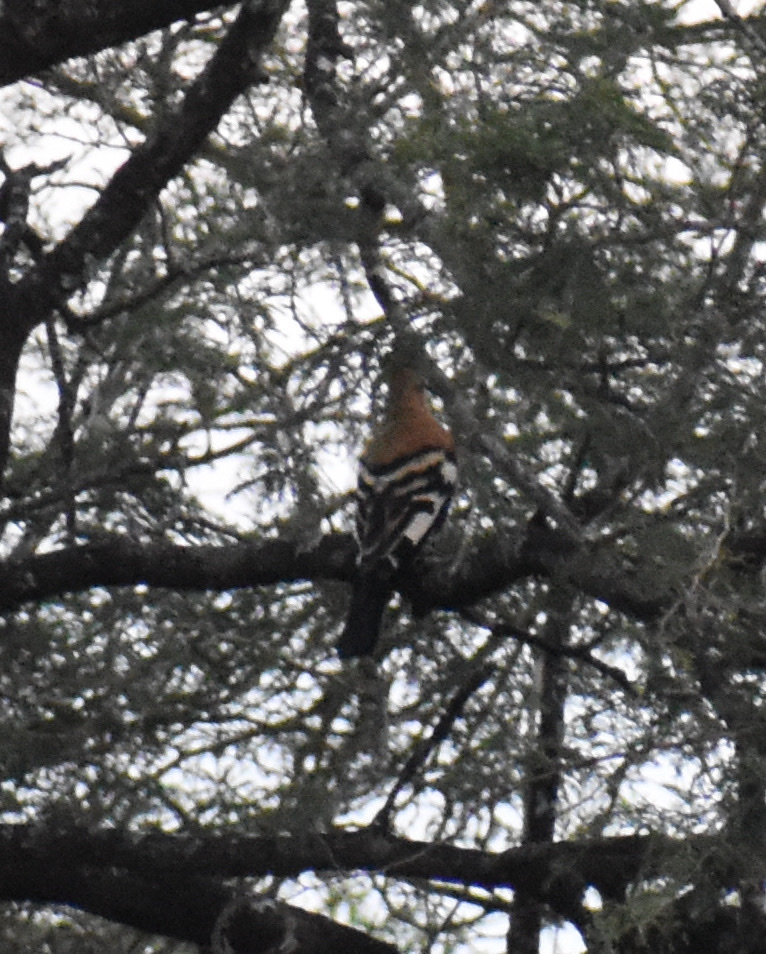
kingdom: Animalia
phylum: Chordata
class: Aves
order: Bucerotiformes
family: Upupidae
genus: Upupa
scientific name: Upupa africana
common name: African hoopoe
